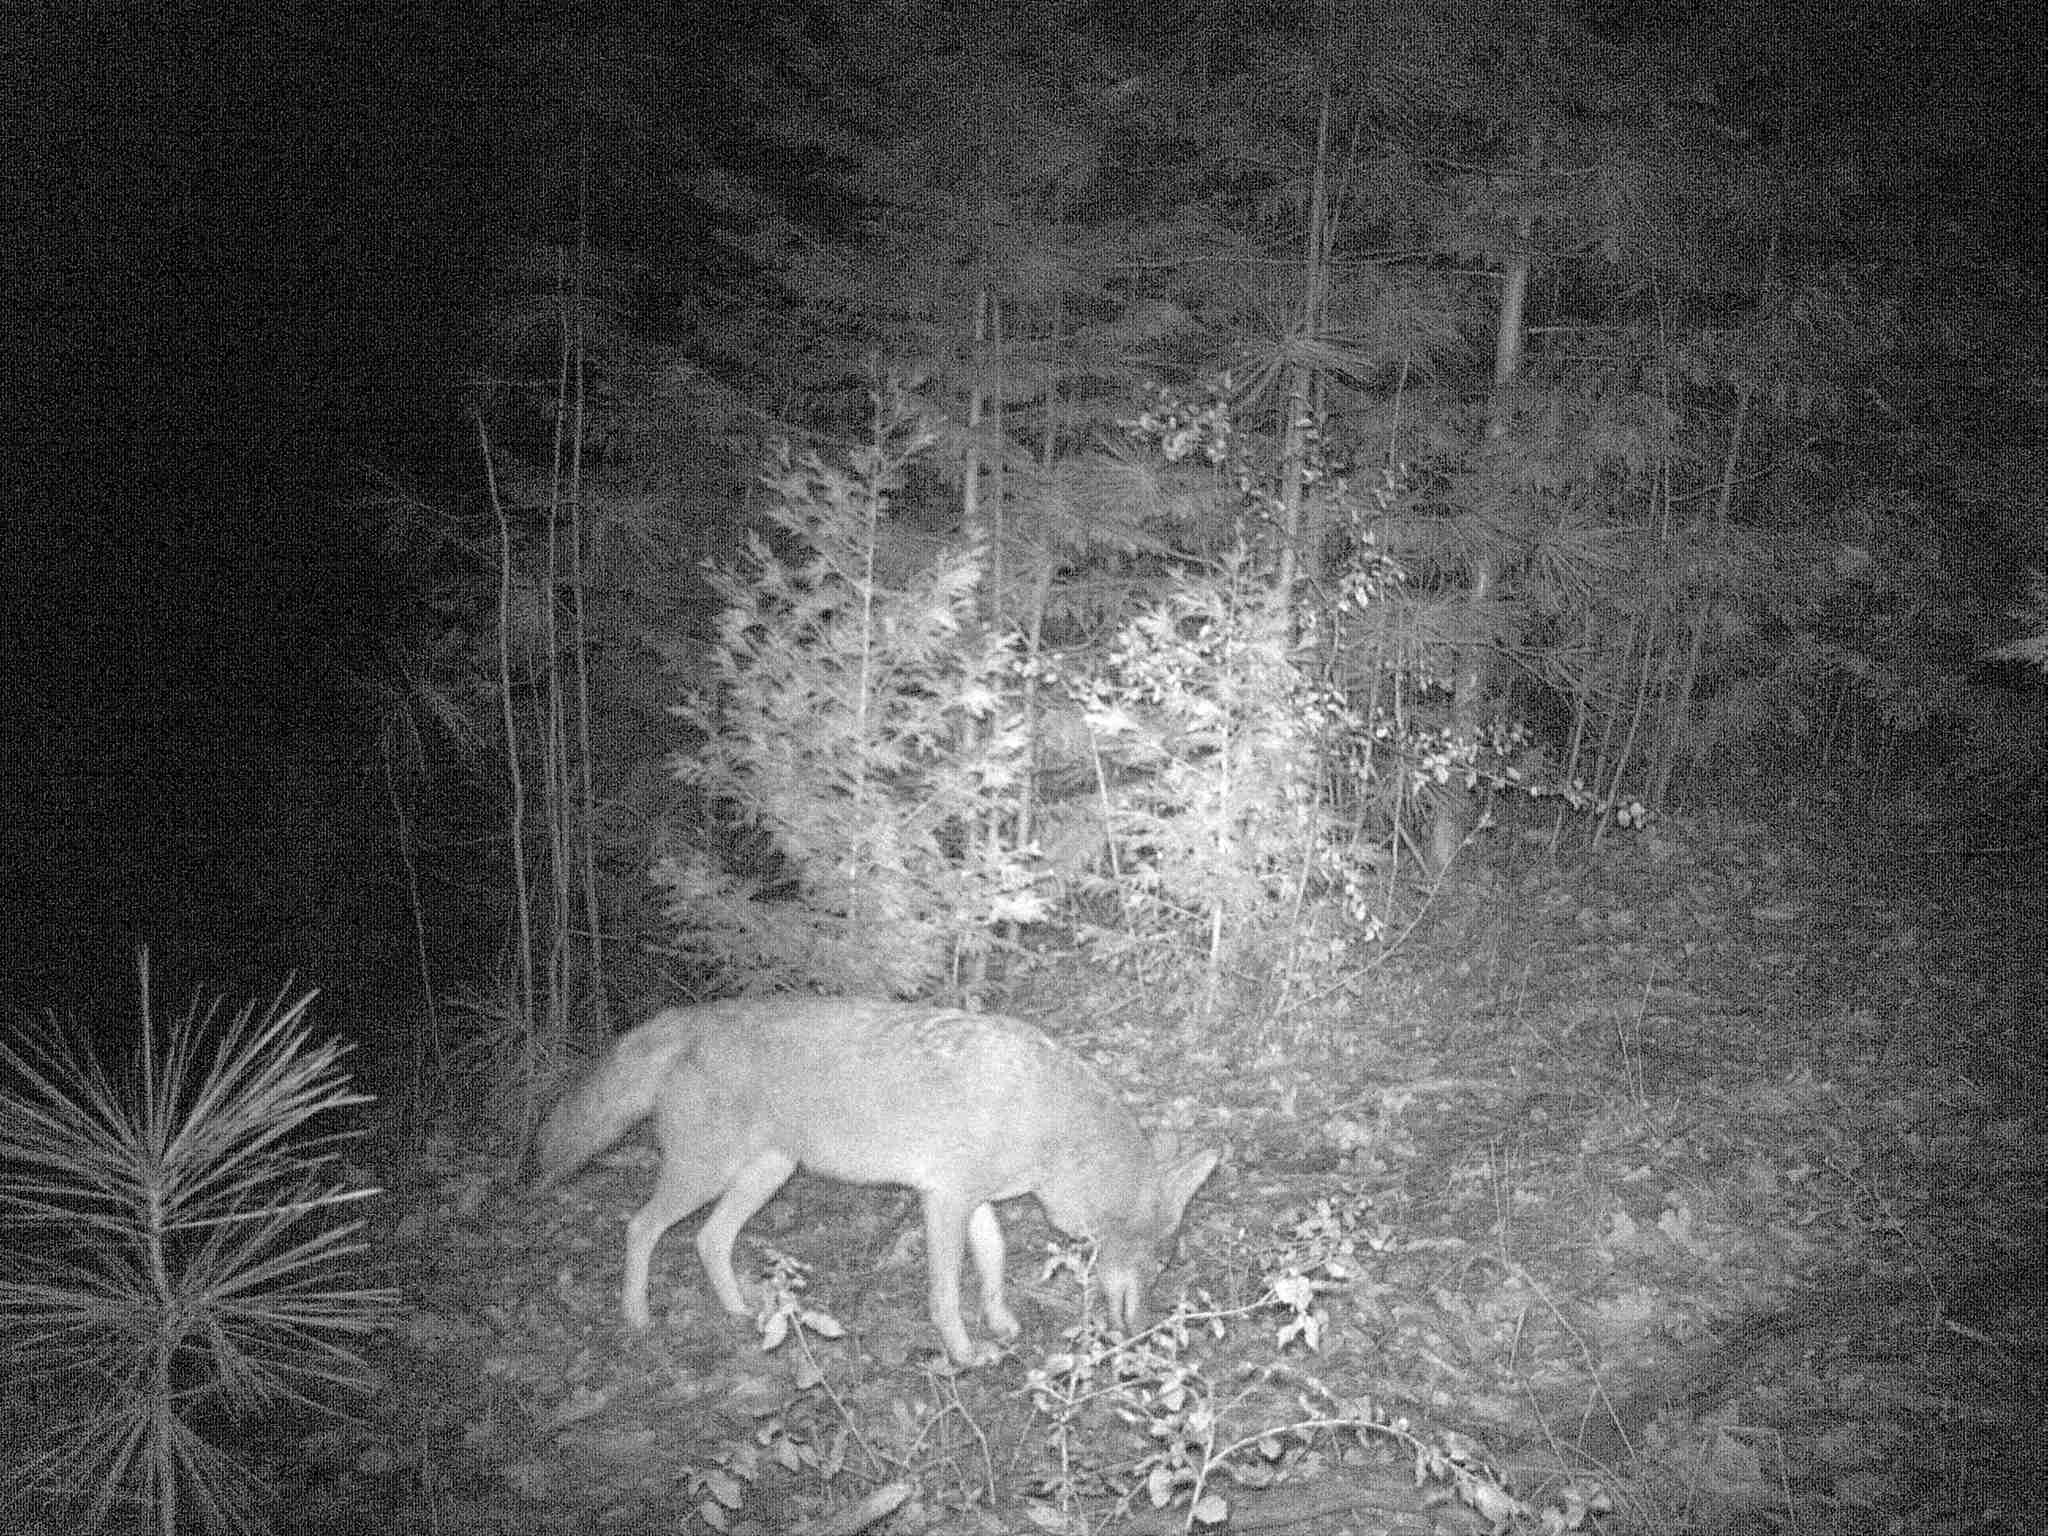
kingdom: Animalia
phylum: Chordata
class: Mammalia
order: Carnivora
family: Canidae
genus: Canis
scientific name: Canis latrans
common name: Coyote
